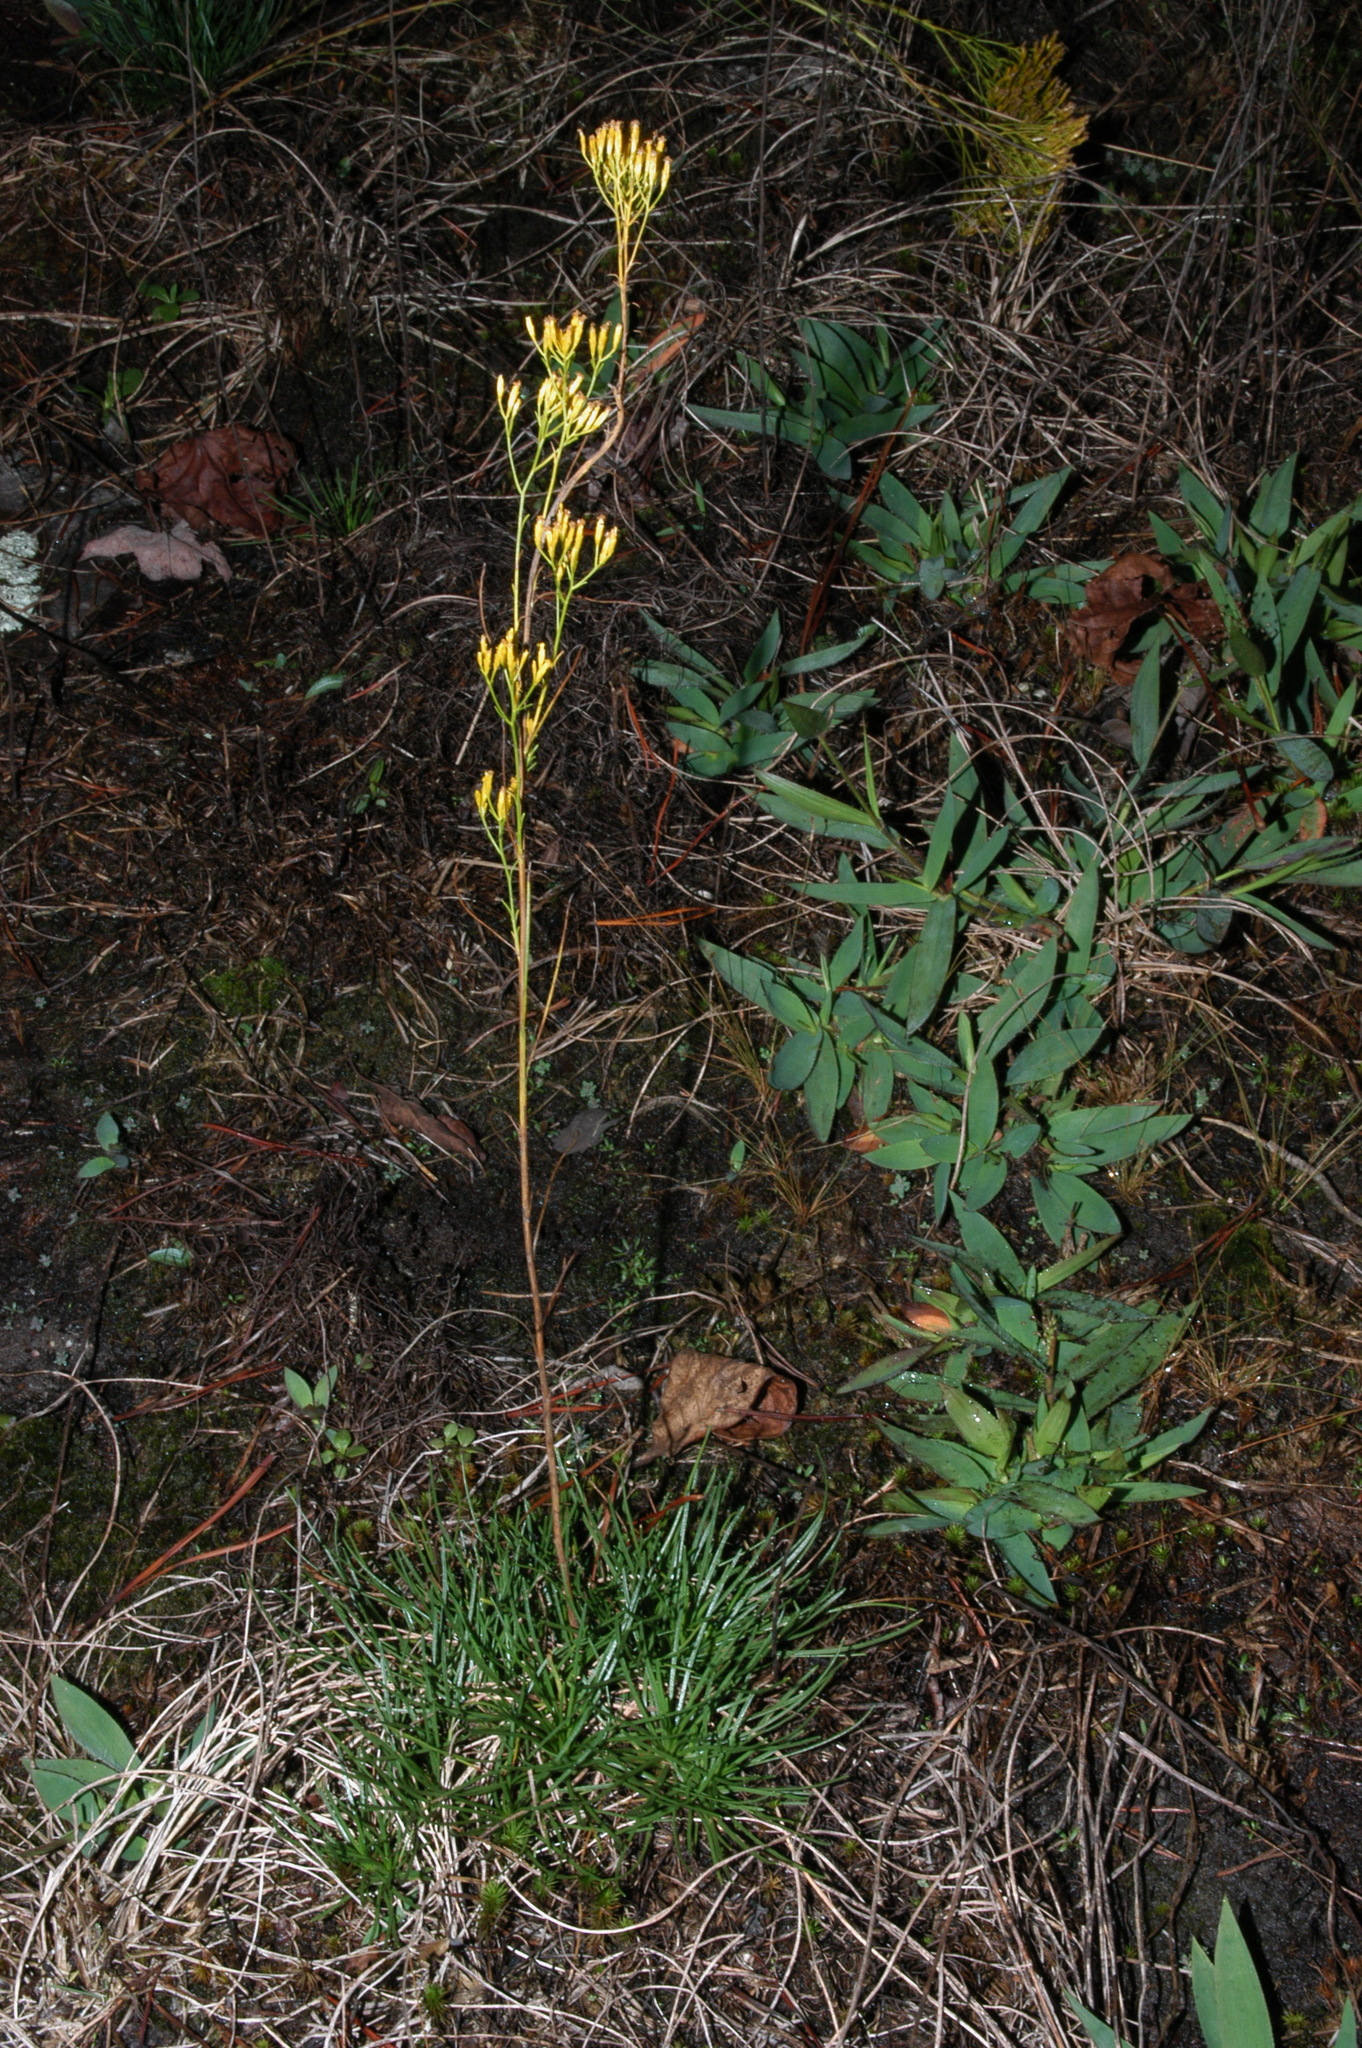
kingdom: Plantae
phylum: Tracheophyta
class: Magnoliopsida
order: Asterales
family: Asteraceae
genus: Bigelowia
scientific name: Bigelowia nuttallii
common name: Nuttall's rayless-goldenrod
